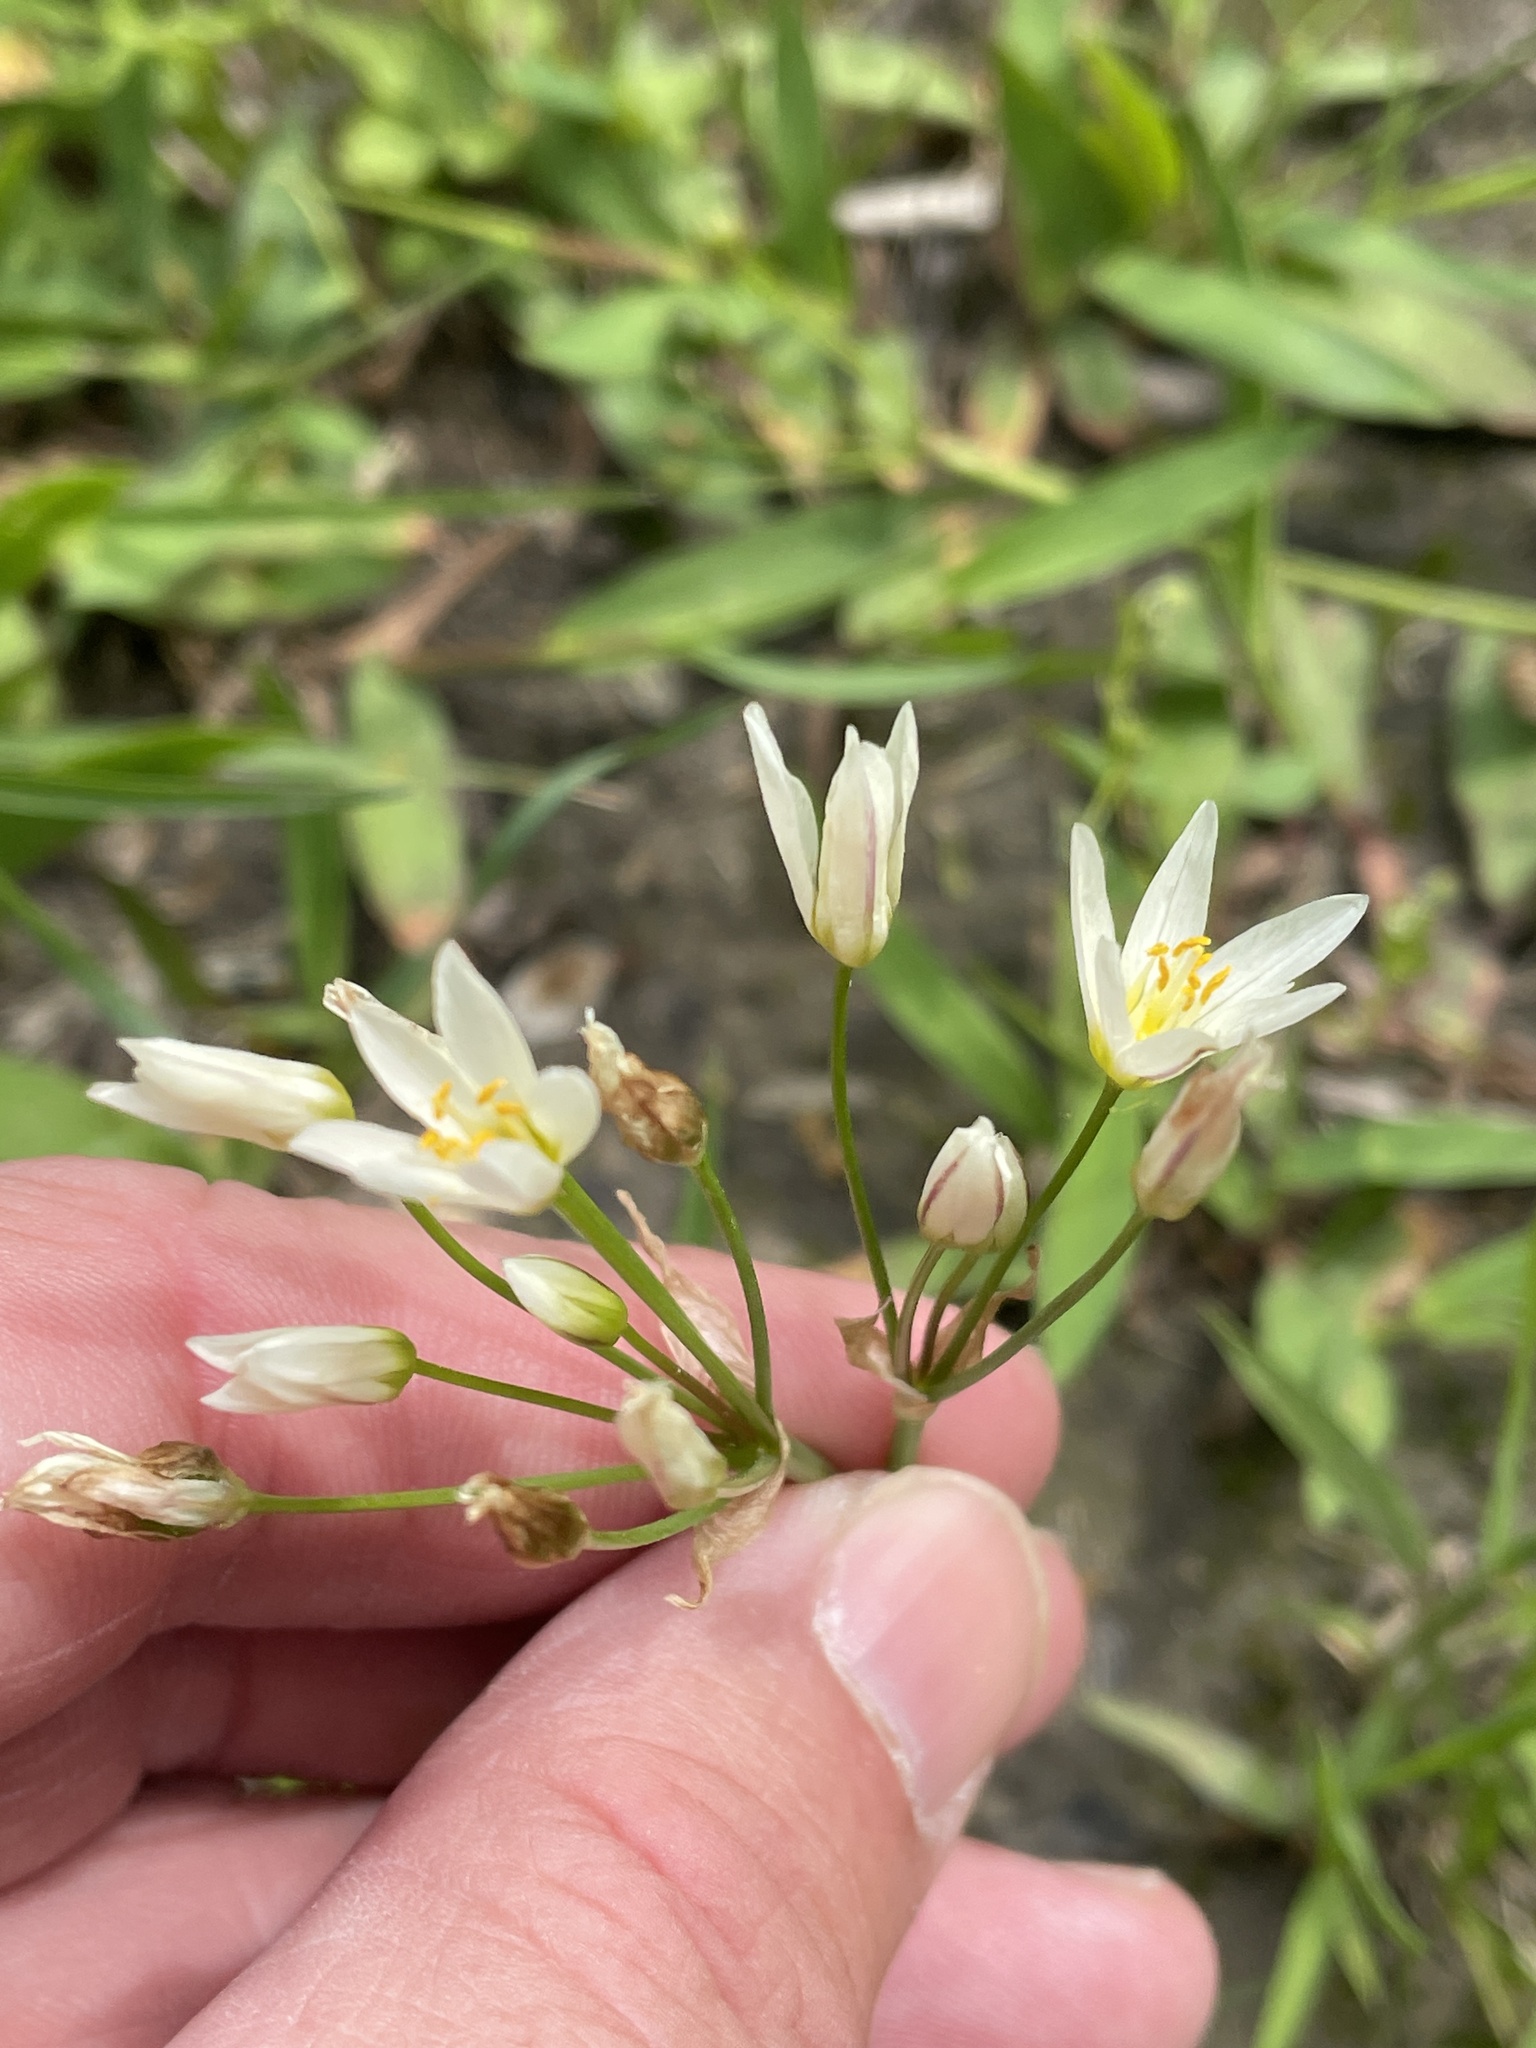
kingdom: Plantae
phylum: Tracheophyta
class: Liliopsida
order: Asparagales
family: Amaryllidaceae
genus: Nothoscordum
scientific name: Nothoscordum bivalve
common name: Crow-poison
